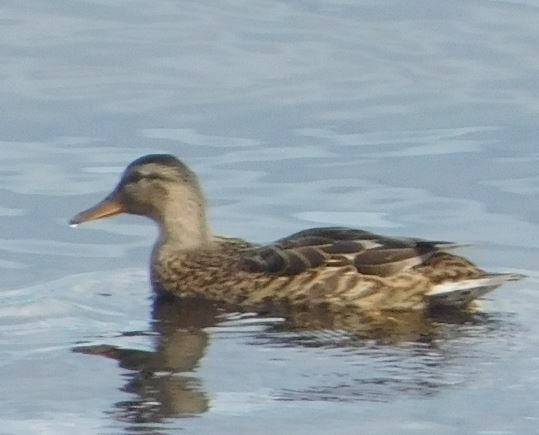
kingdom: Animalia
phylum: Chordata
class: Aves
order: Anseriformes
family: Anatidae
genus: Anas
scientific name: Anas platyrhynchos
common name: Mallard
